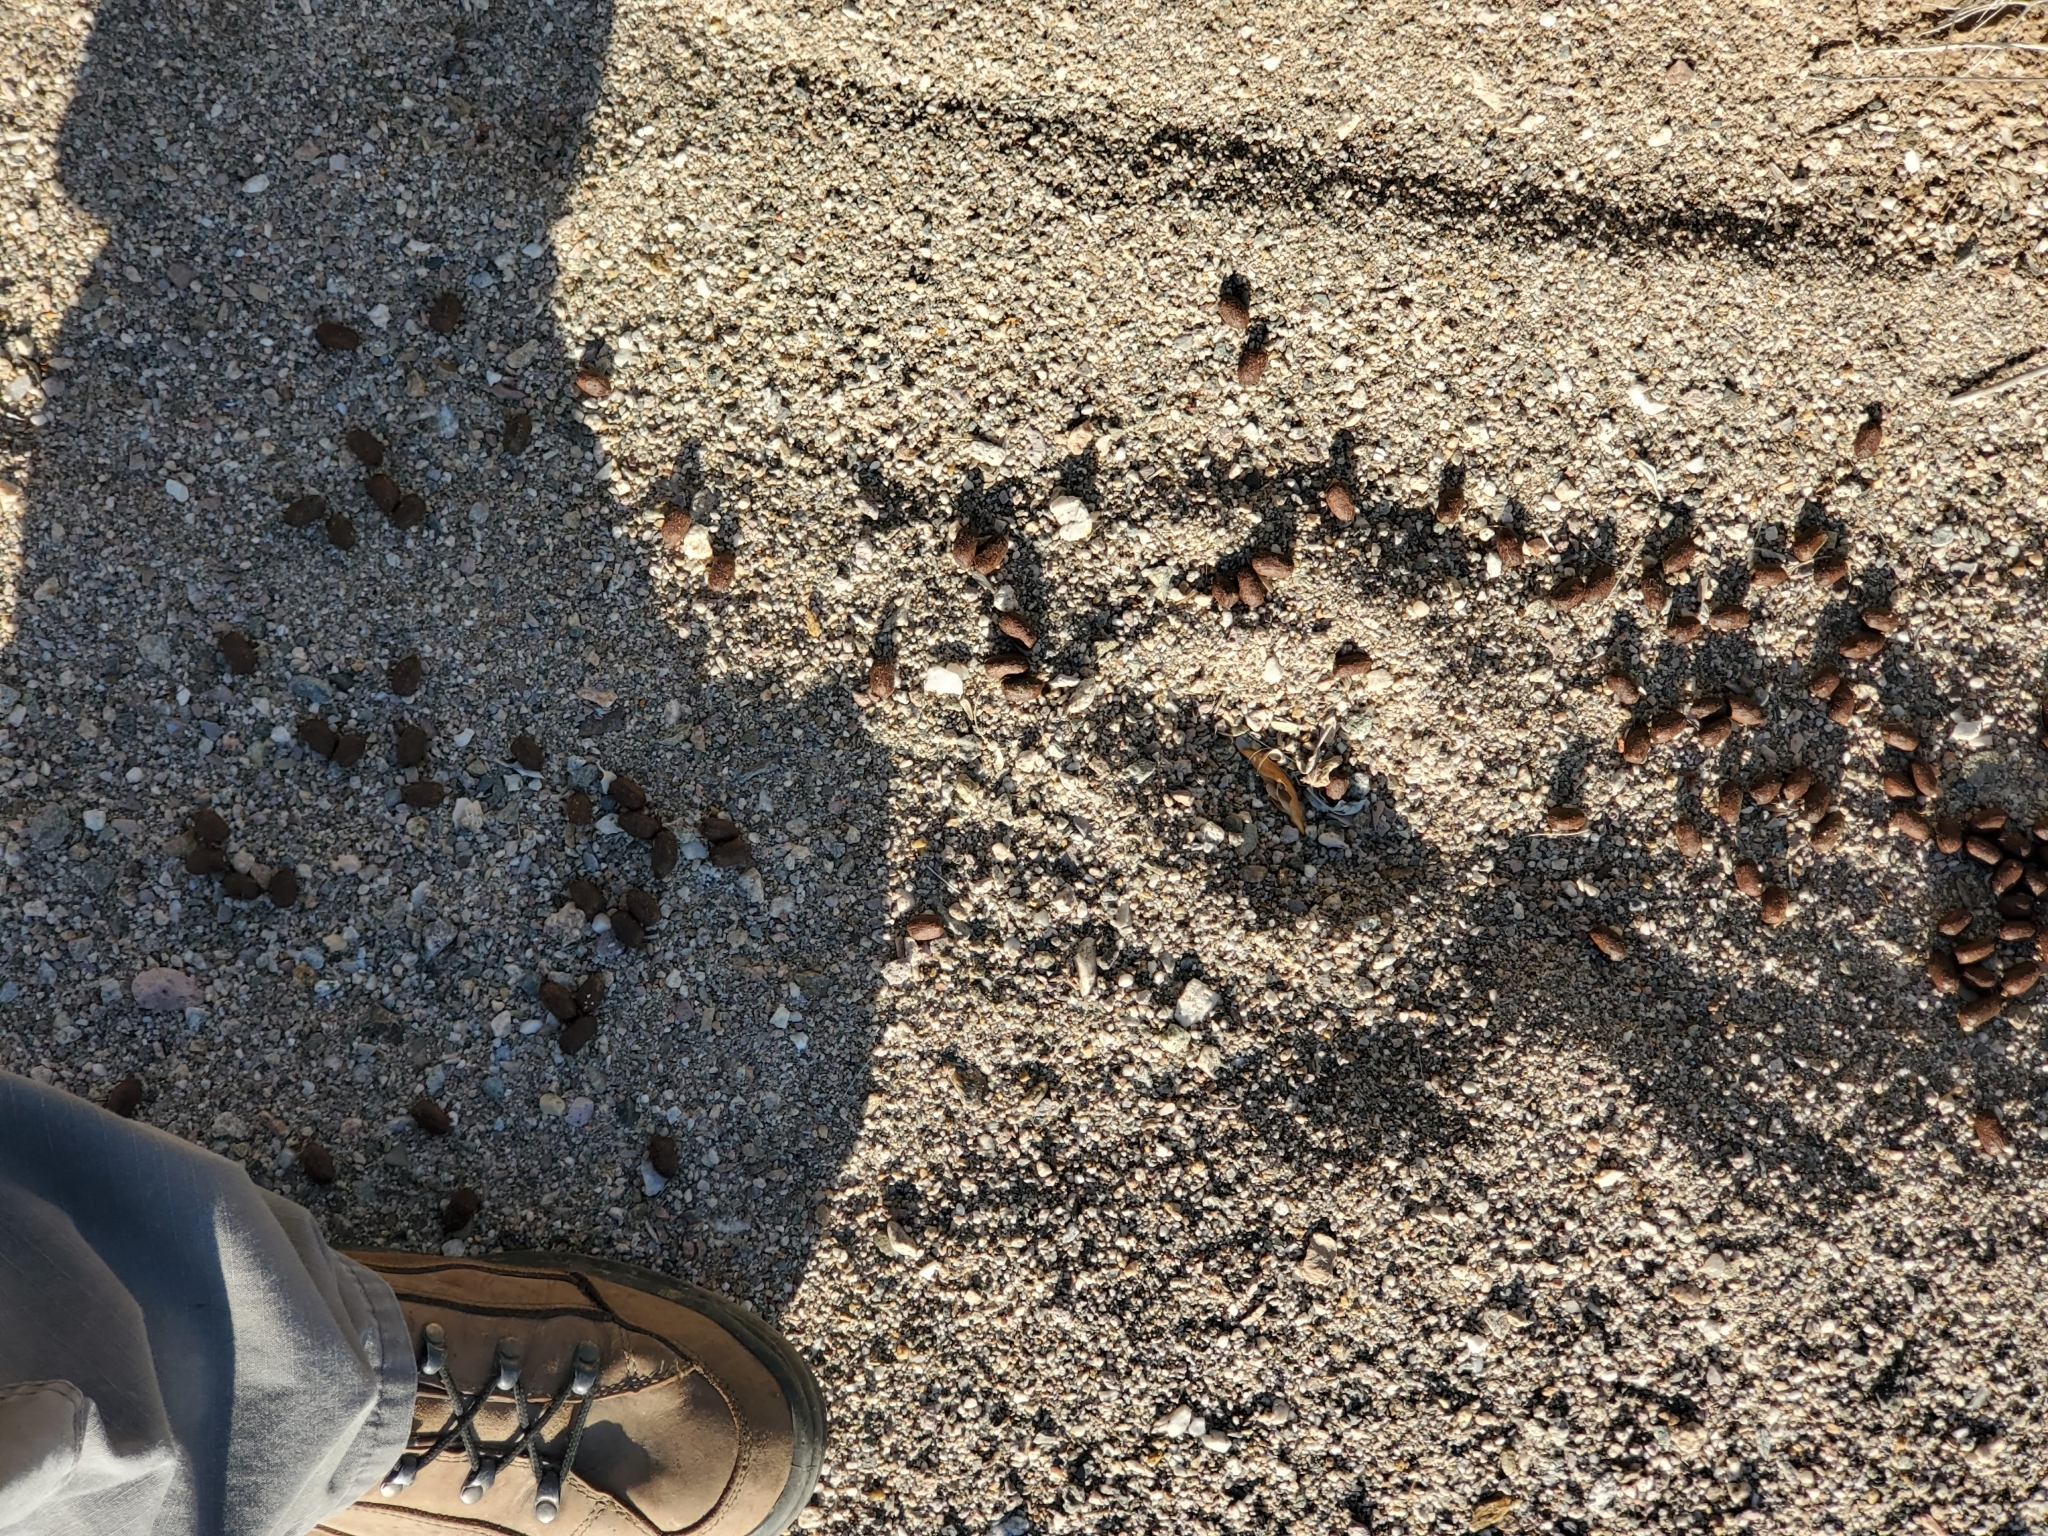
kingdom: Animalia
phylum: Chordata
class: Mammalia
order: Artiodactyla
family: Cervidae
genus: Odocoileus
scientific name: Odocoileus hemionus
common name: Mule deer
